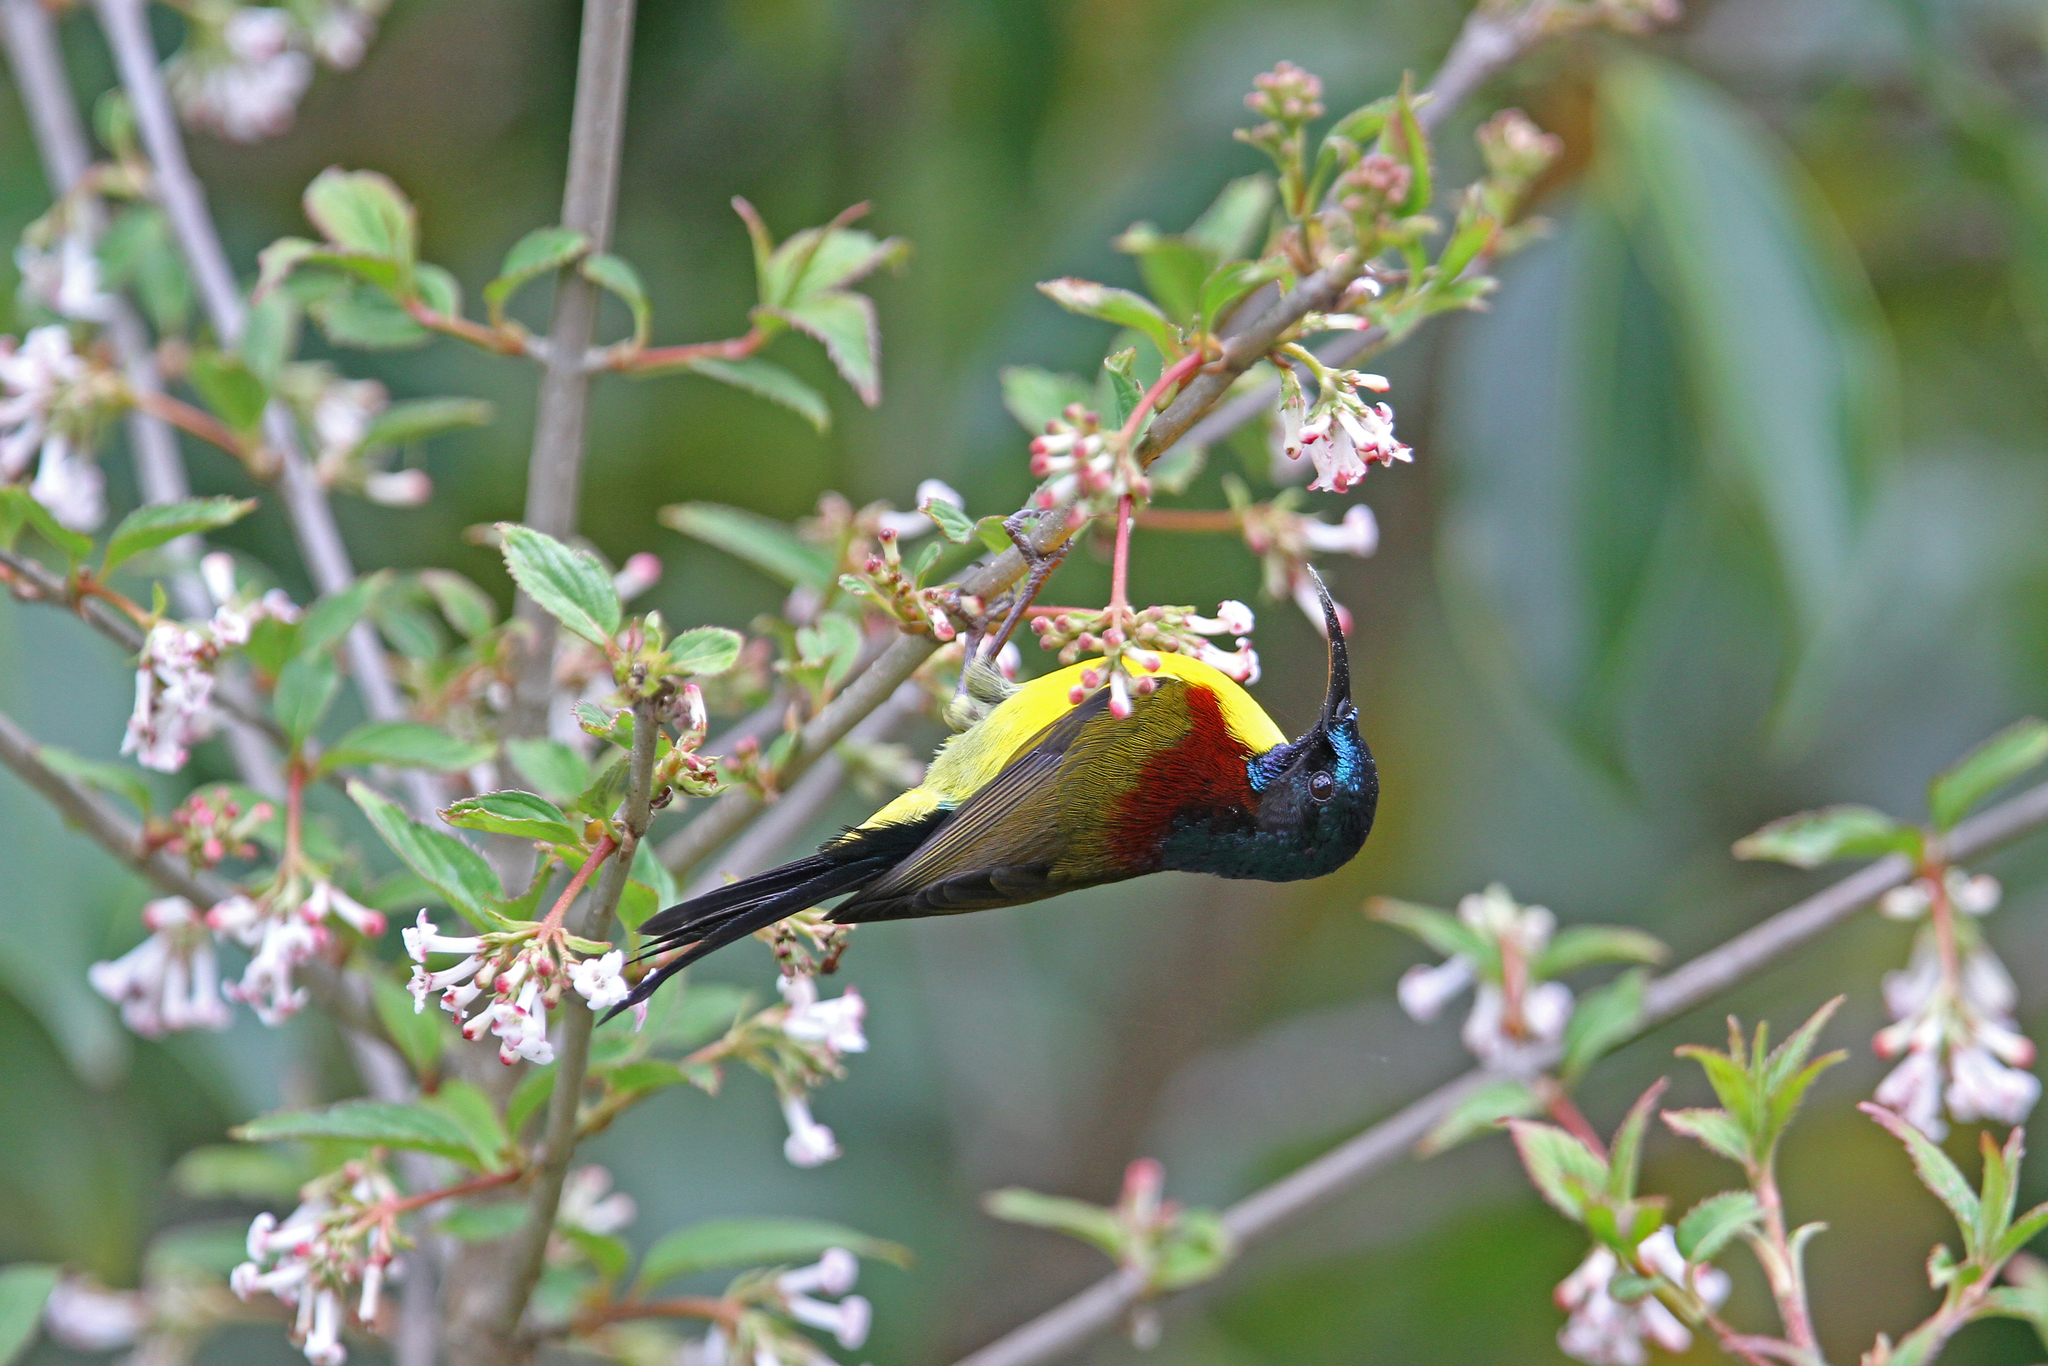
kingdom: Animalia
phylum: Chordata
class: Aves
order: Passeriformes
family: Nectariniidae
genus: Aethopyga
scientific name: Aethopyga nipalensis
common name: Green-tailed sunbird
